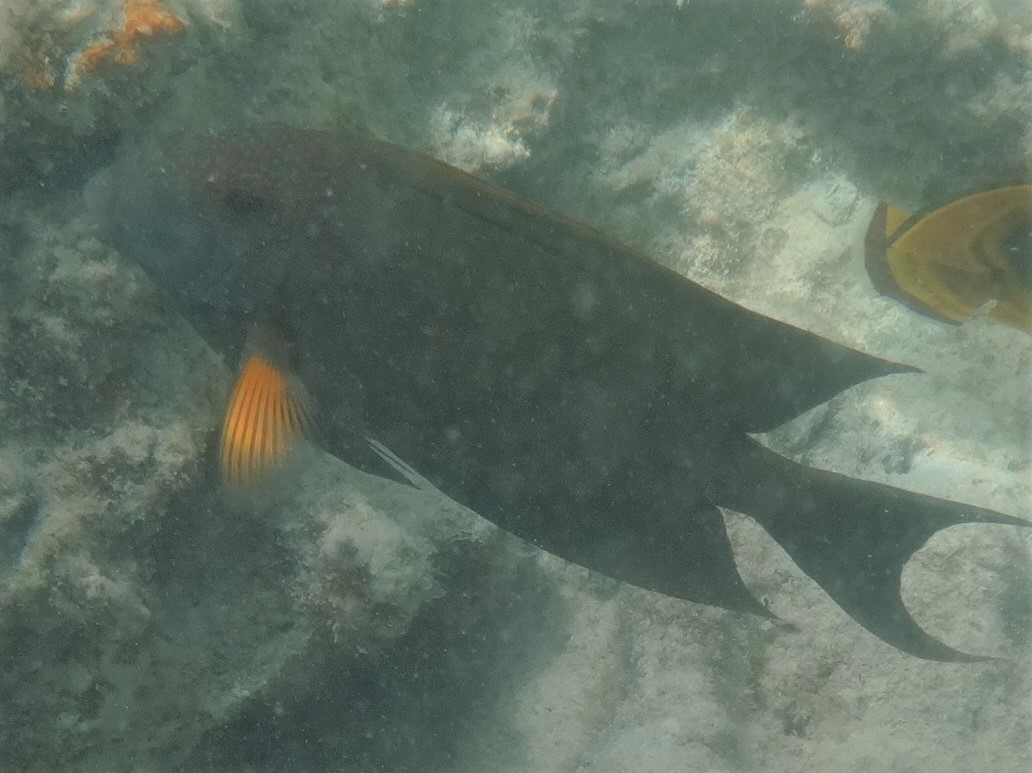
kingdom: Animalia
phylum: Chordata
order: Perciformes
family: Acanthuridae
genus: Ctenochaetus
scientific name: Ctenochaetus striatus
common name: Bristle-toothed surgeonfish
